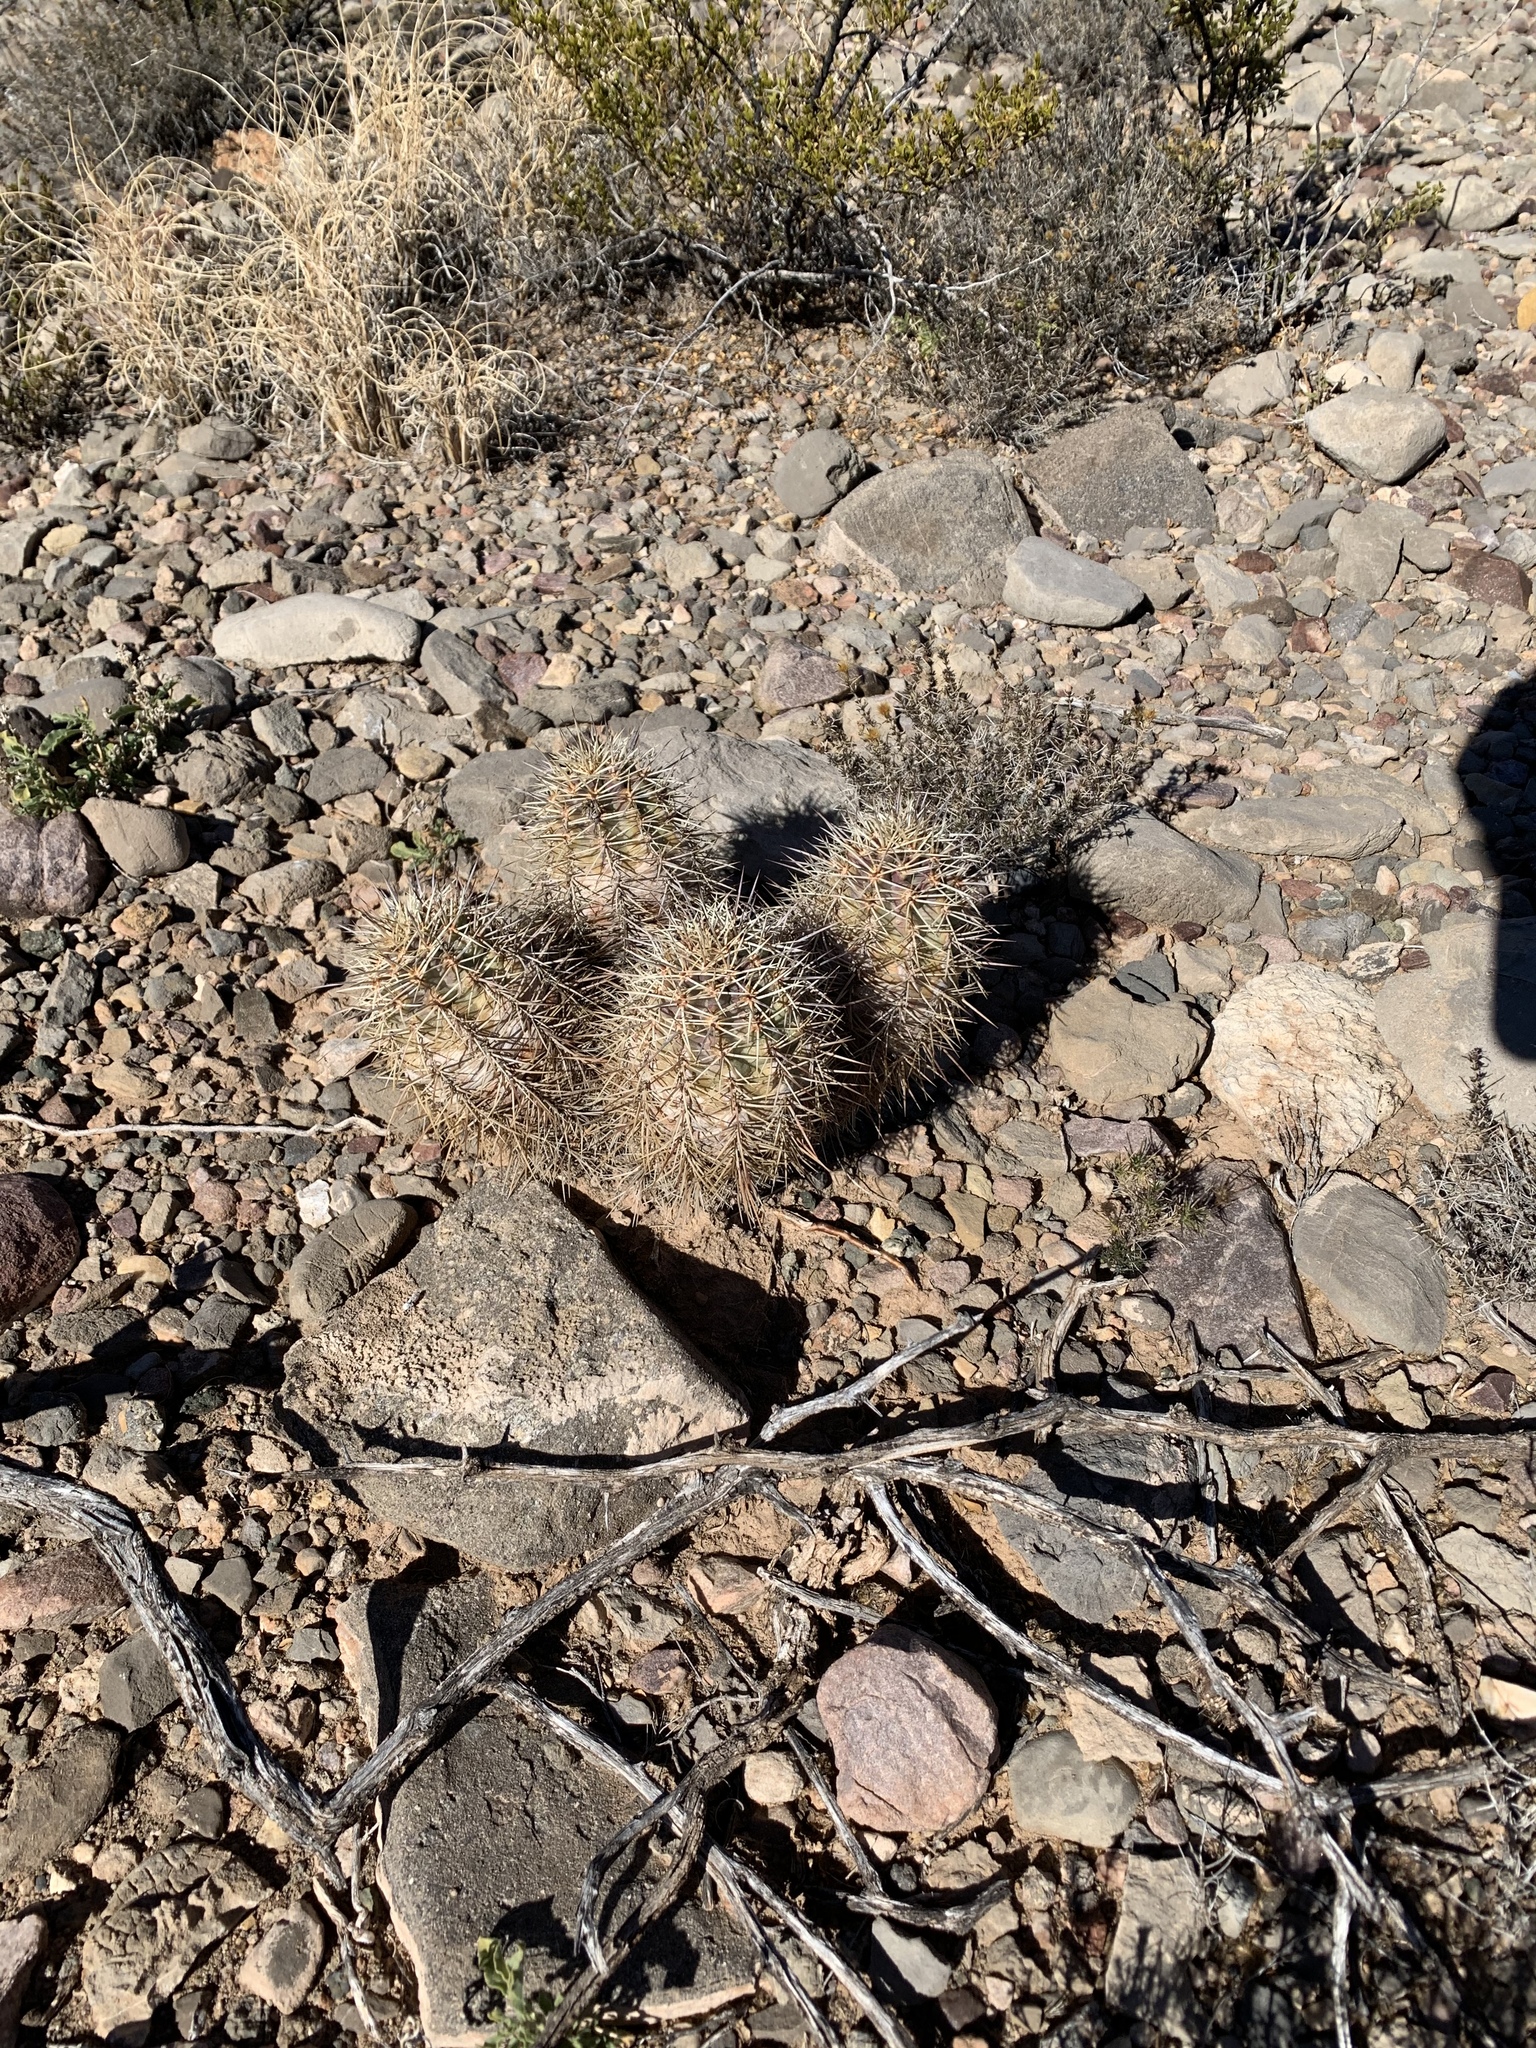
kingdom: Plantae
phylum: Tracheophyta
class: Magnoliopsida
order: Caryophyllales
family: Cactaceae
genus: Echinocereus
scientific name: Echinocereus coccineus
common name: Scarlet hedgehog cactus
